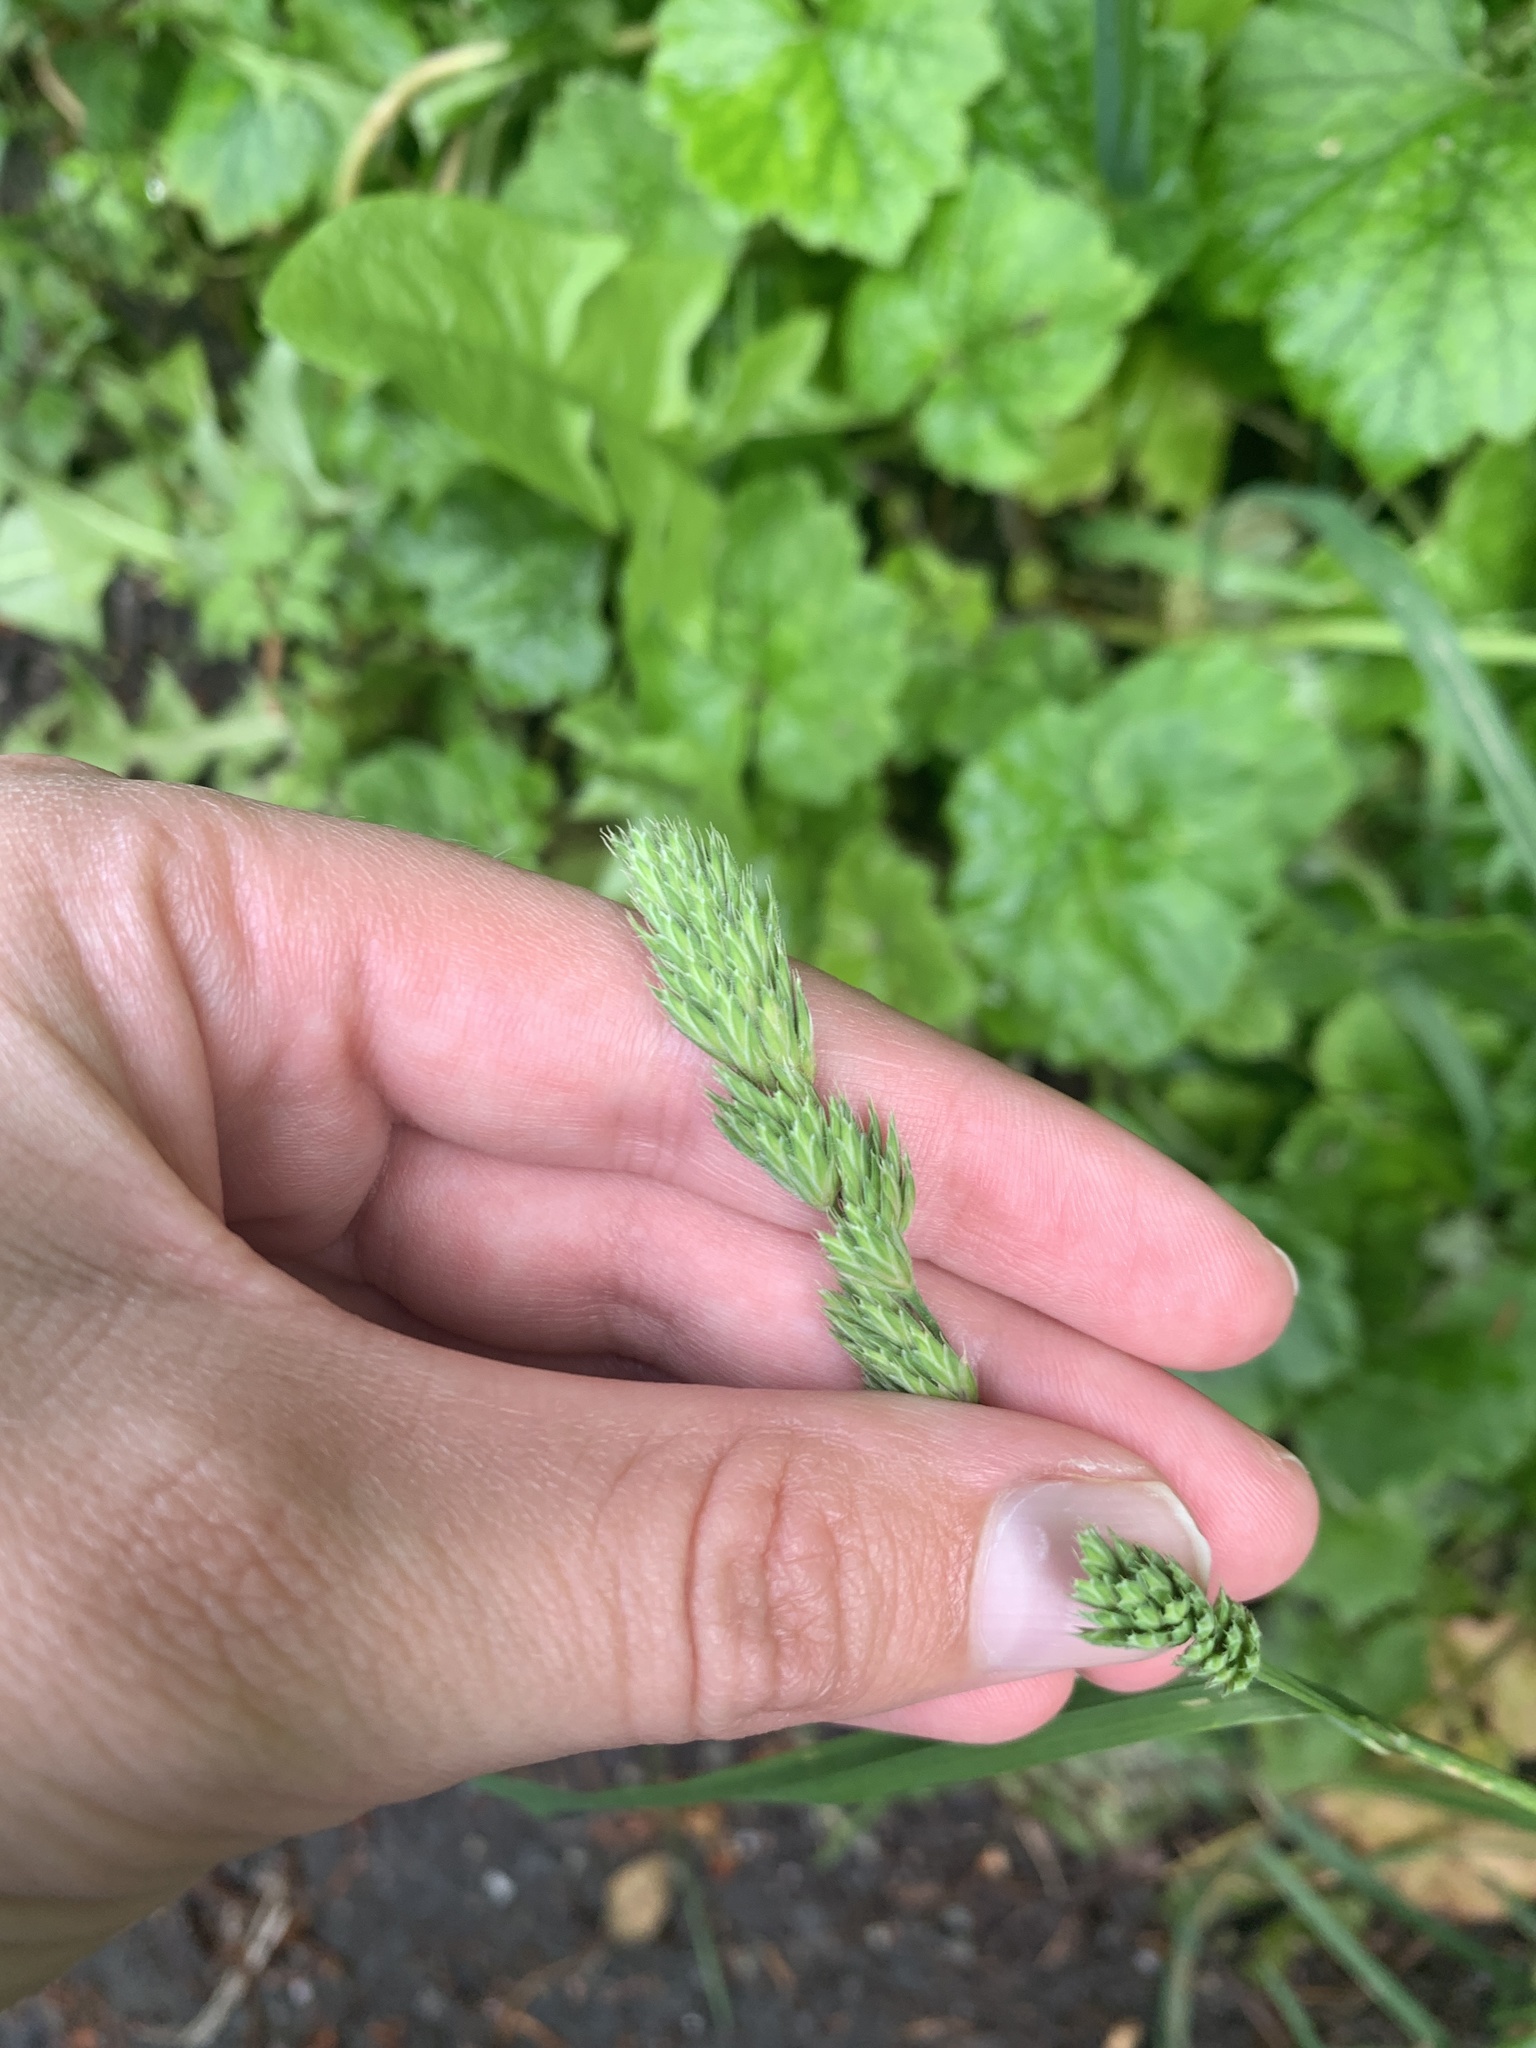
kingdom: Plantae
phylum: Tracheophyta
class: Liliopsida
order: Poales
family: Poaceae
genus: Dactylis
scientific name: Dactylis glomerata
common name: Orchardgrass
